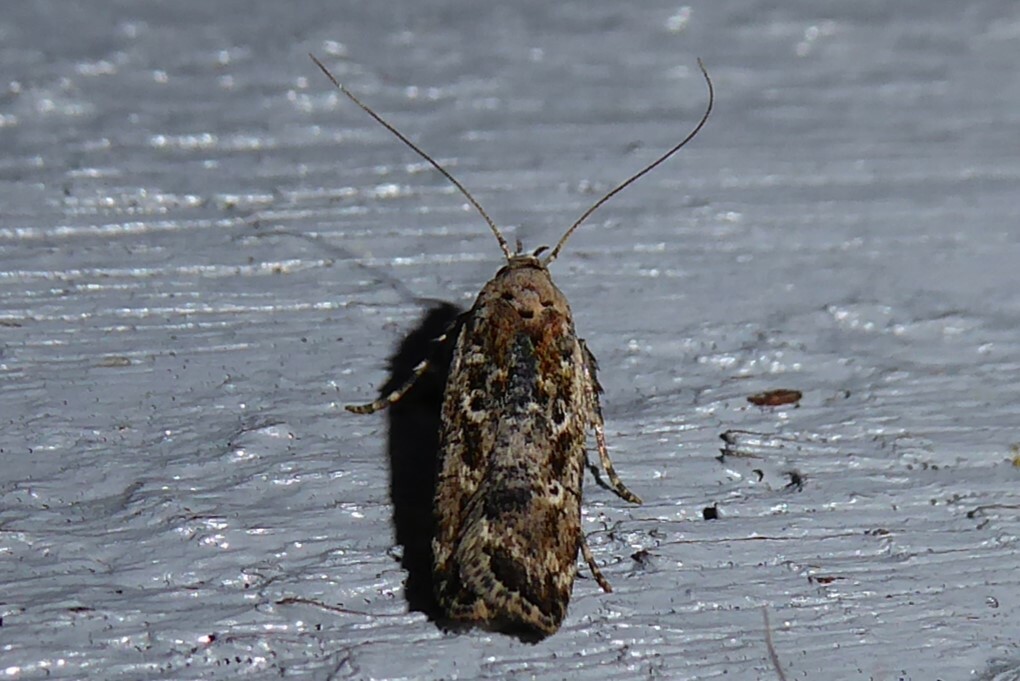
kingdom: Animalia
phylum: Arthropoda
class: Insecta
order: Lepidoptera
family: Gelechiidae
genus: Anisoplaca
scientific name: Anisoplaca achyrota
